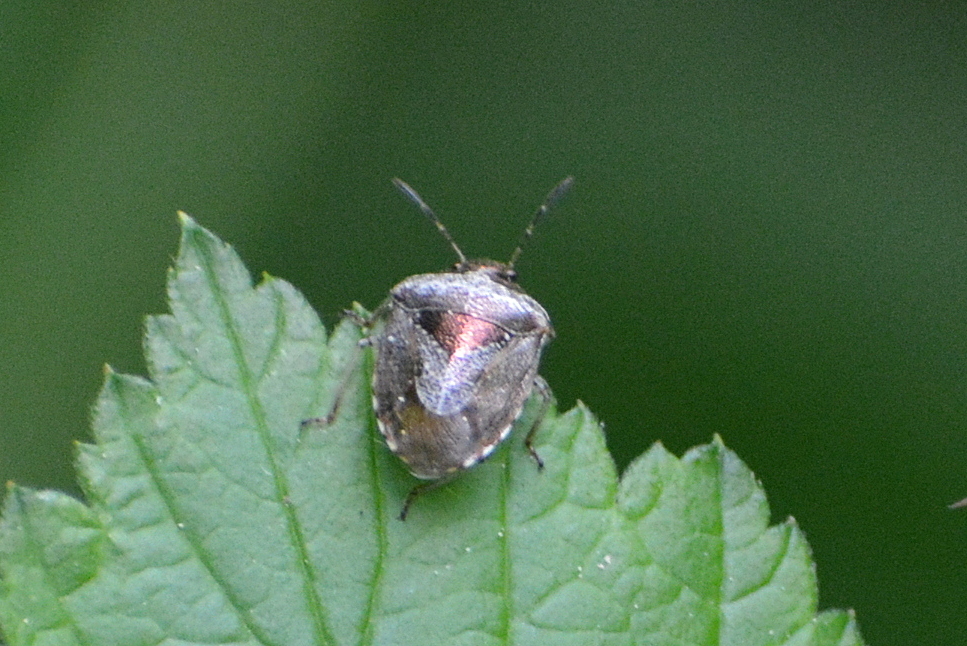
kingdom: Animalia
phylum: Arthropoda
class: Insecta
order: Hemiptera
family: Pentatomidae
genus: Eysarcoris
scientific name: Eysarcoris venustissimus
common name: Woundwort shieldbug
